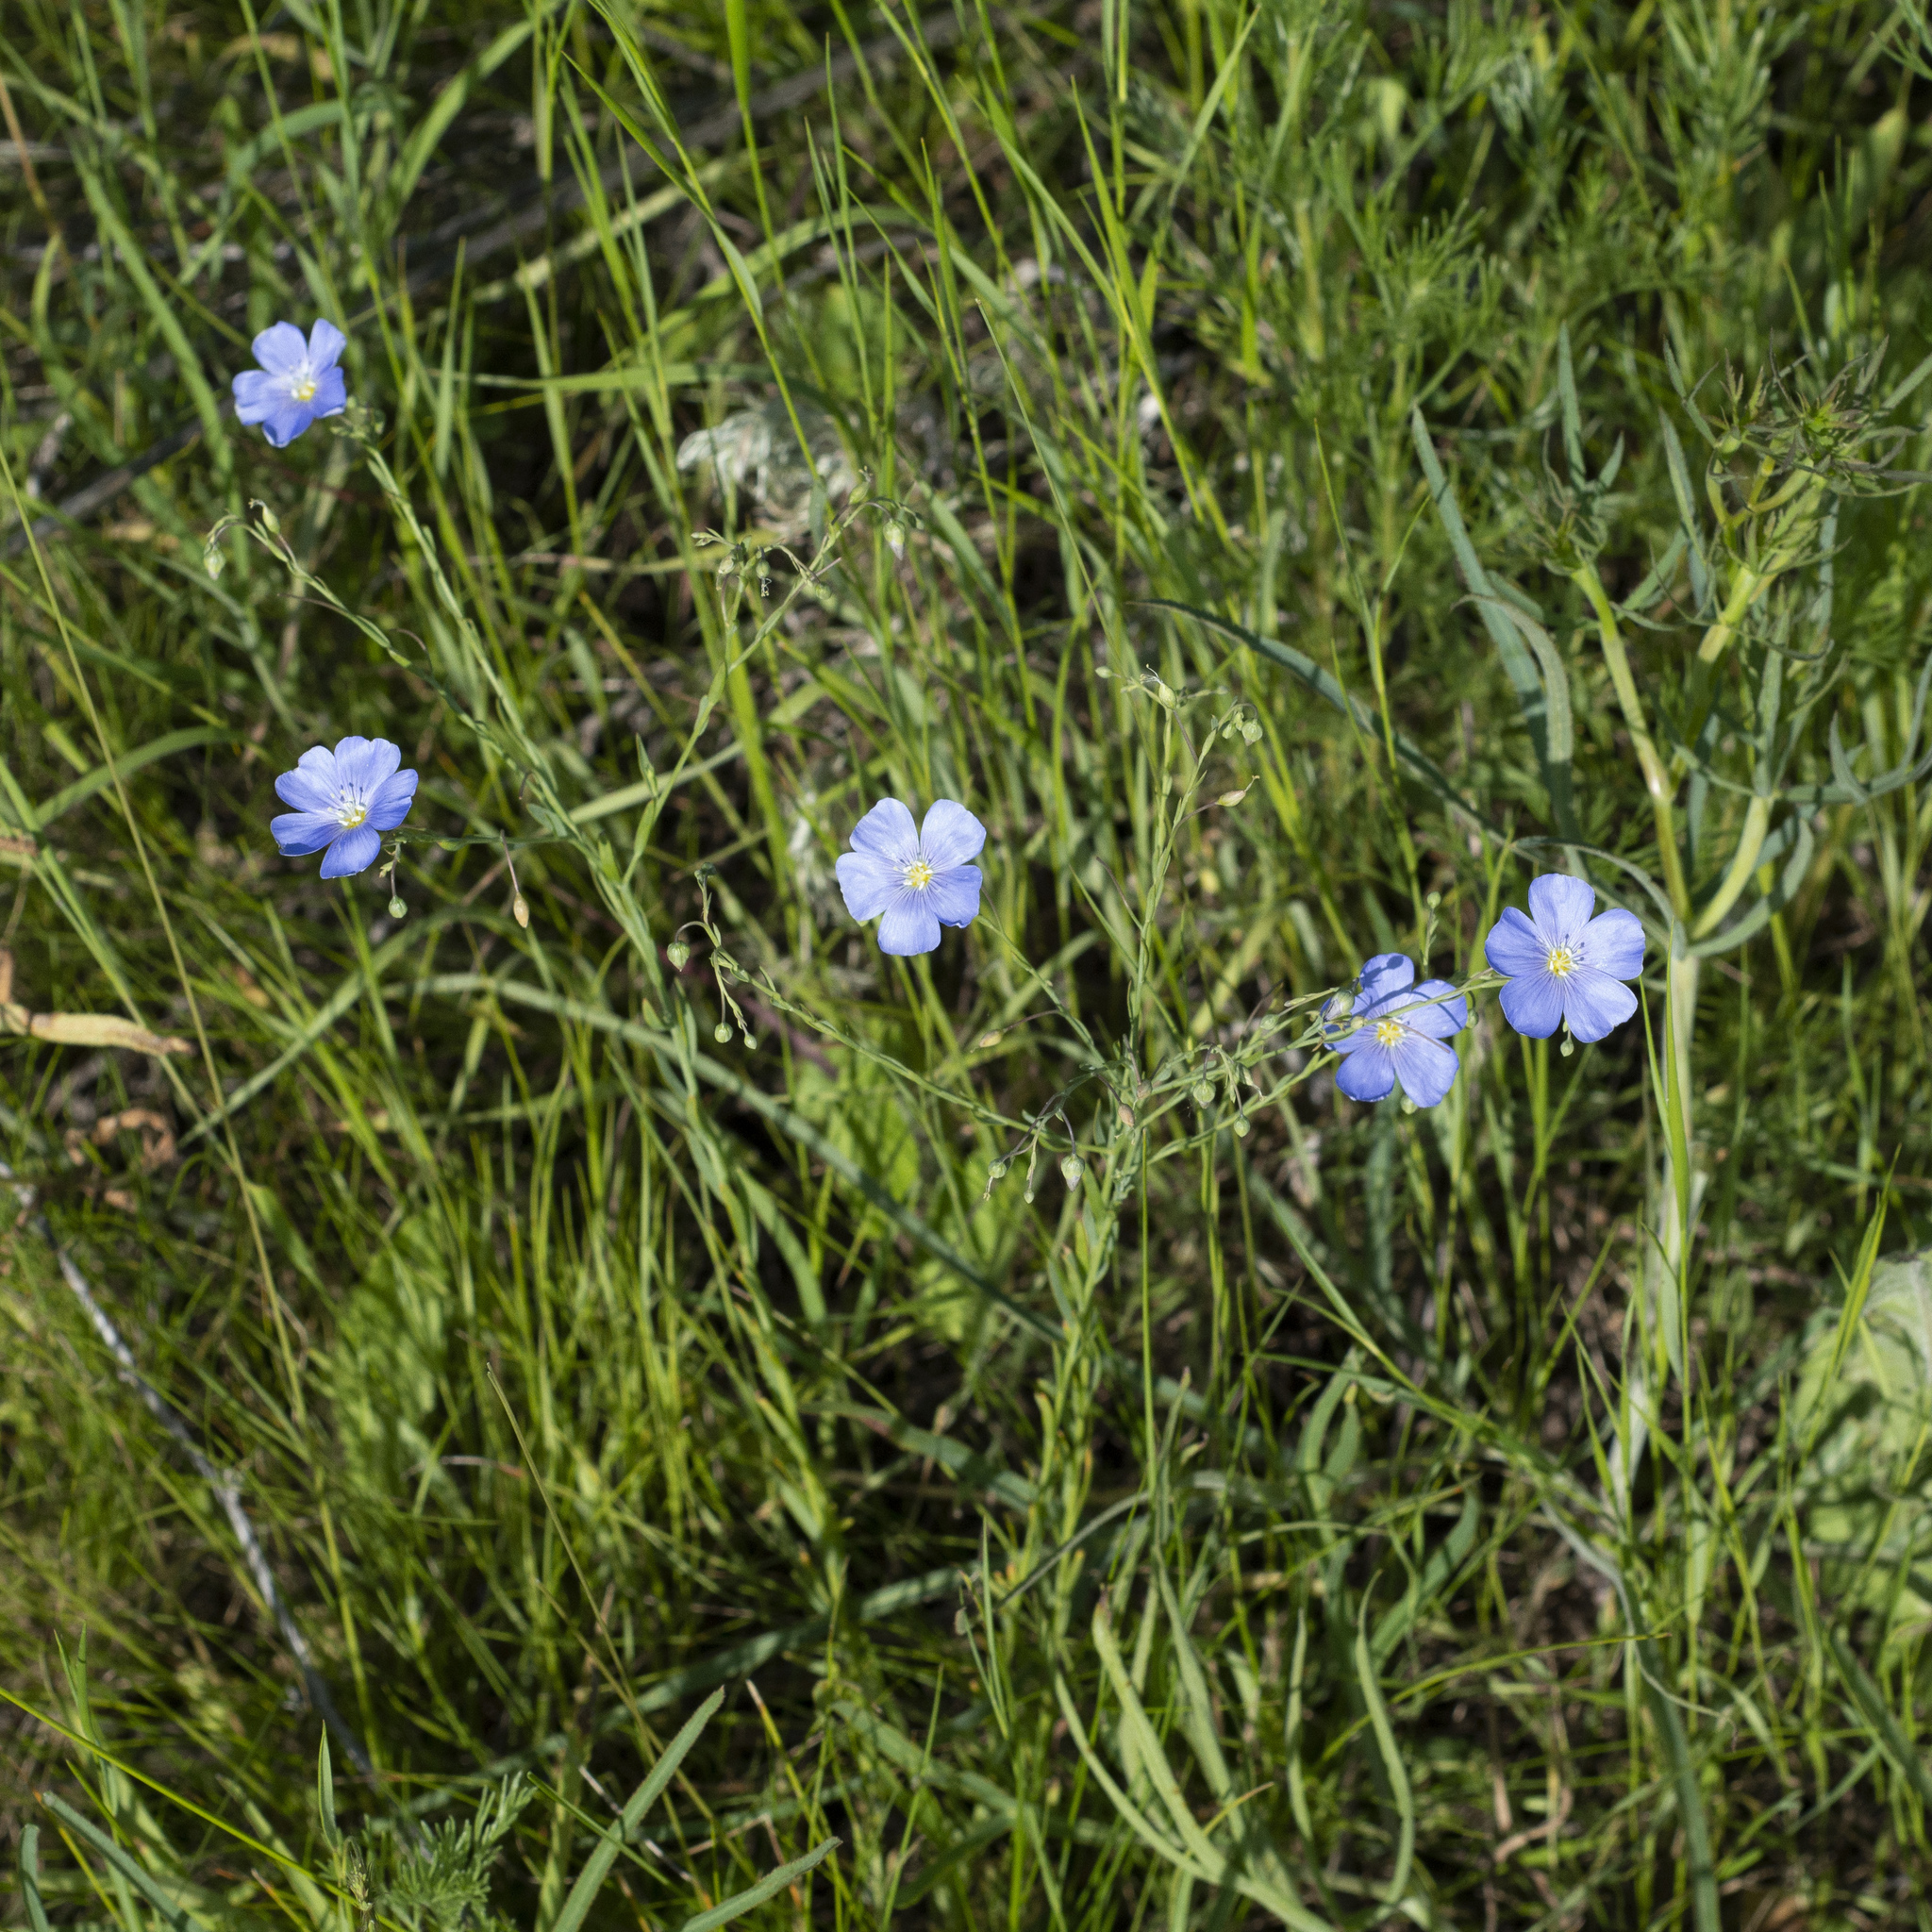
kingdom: Plantae
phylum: Tracheophyta
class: Magnoliopsida
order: Malpighiales
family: Linaceae
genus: Linum
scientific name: Linum austriacum
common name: Austrian flax
